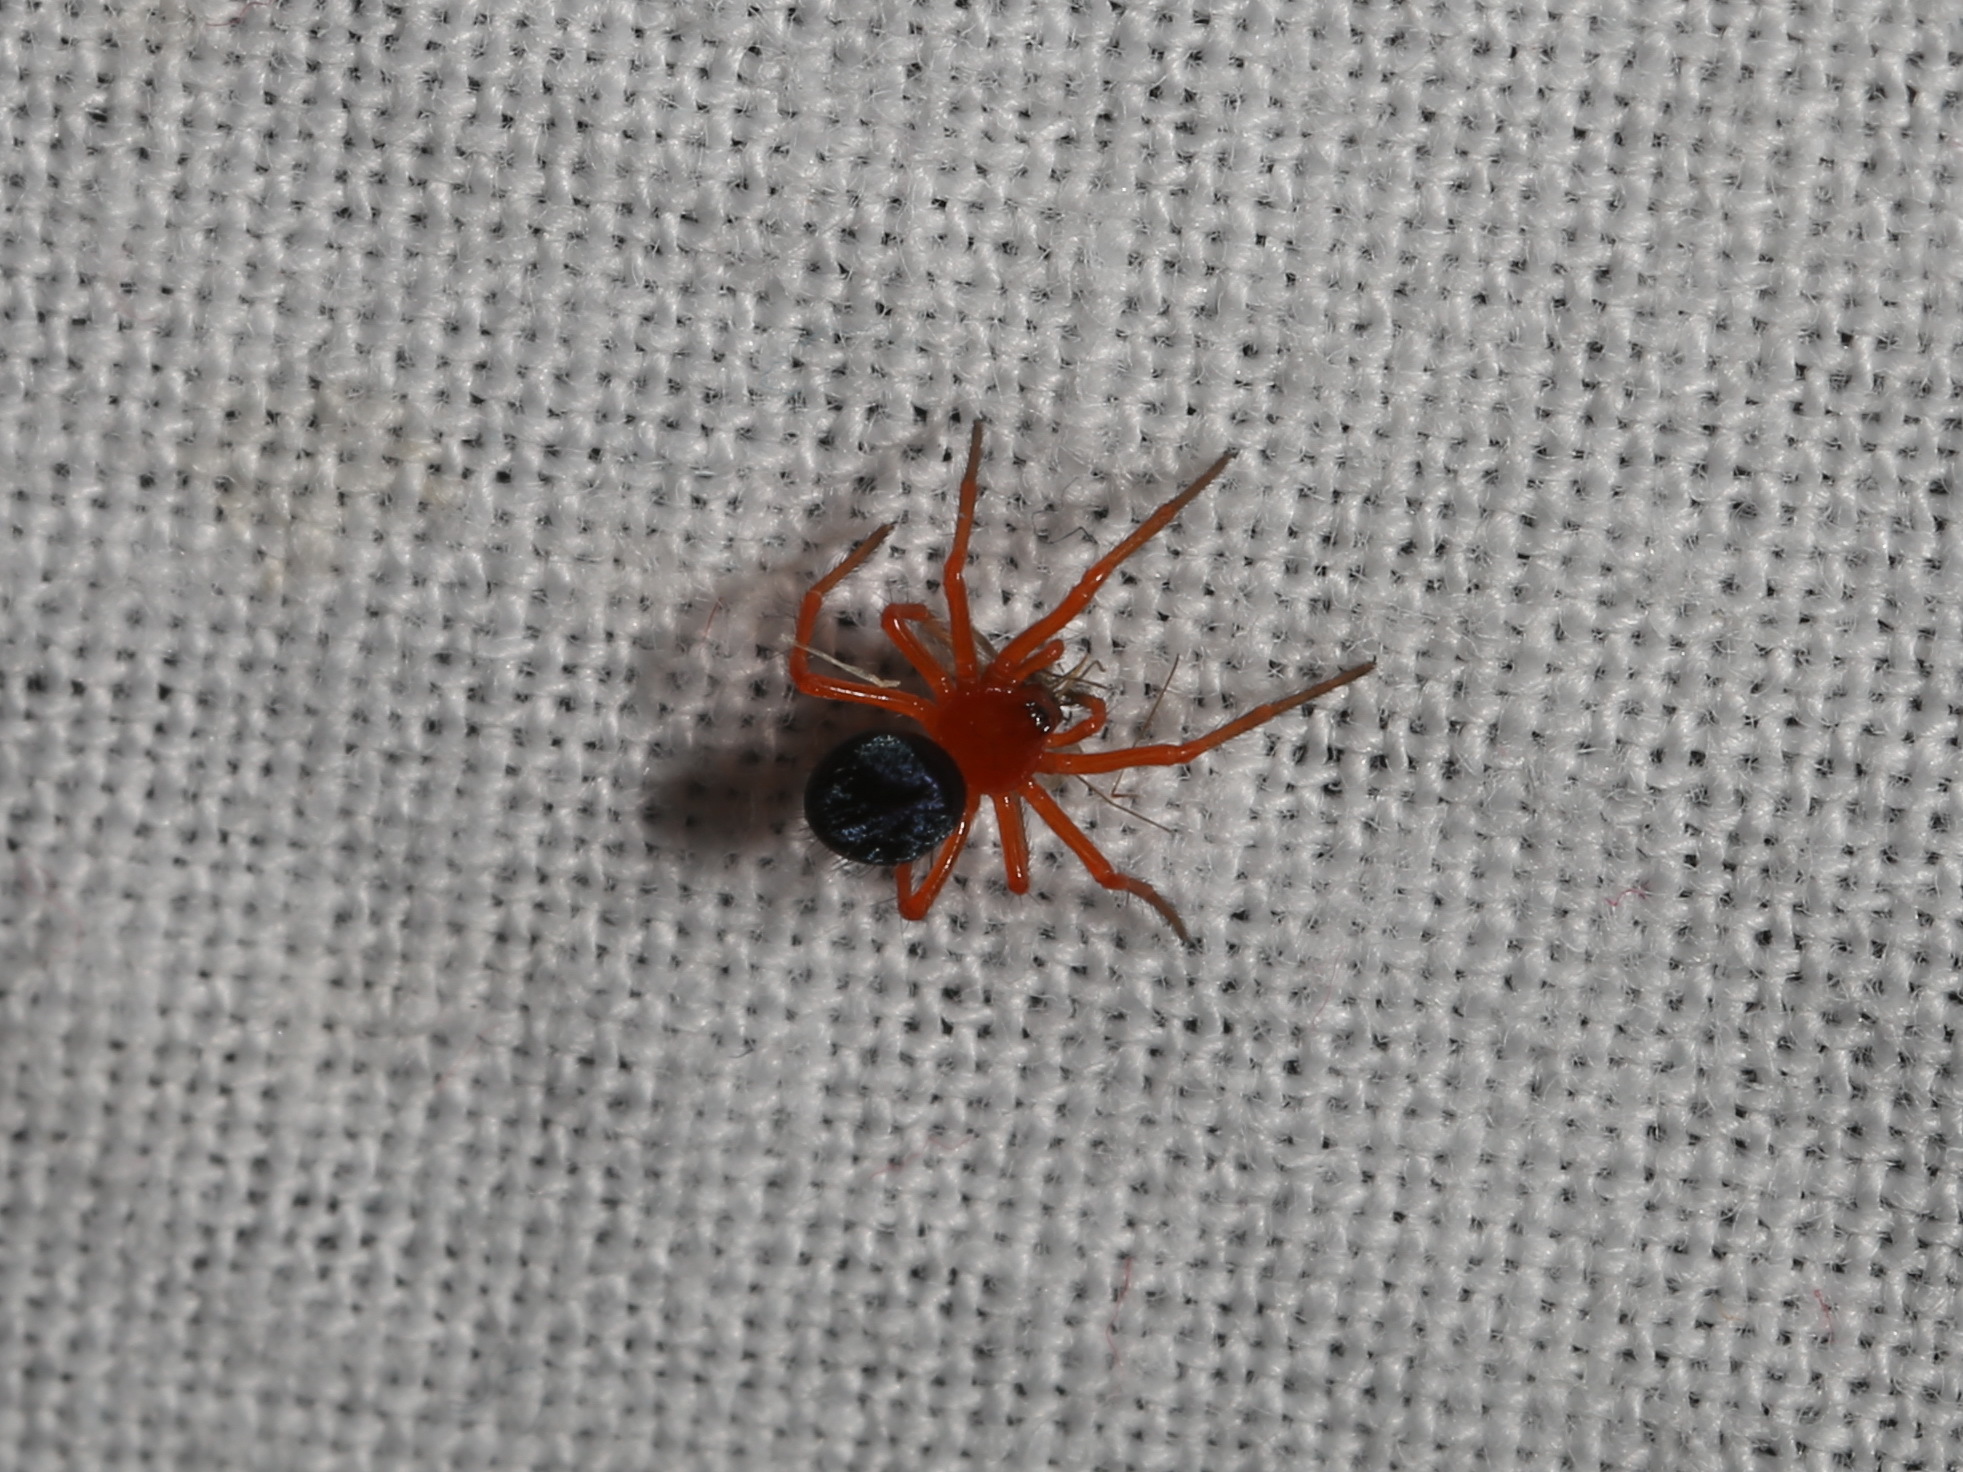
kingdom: Animalia
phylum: Arthropoda
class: Arachnida
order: Araneae
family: Nicodamidae
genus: Nicodamus
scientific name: Nicodamus peregrinus
